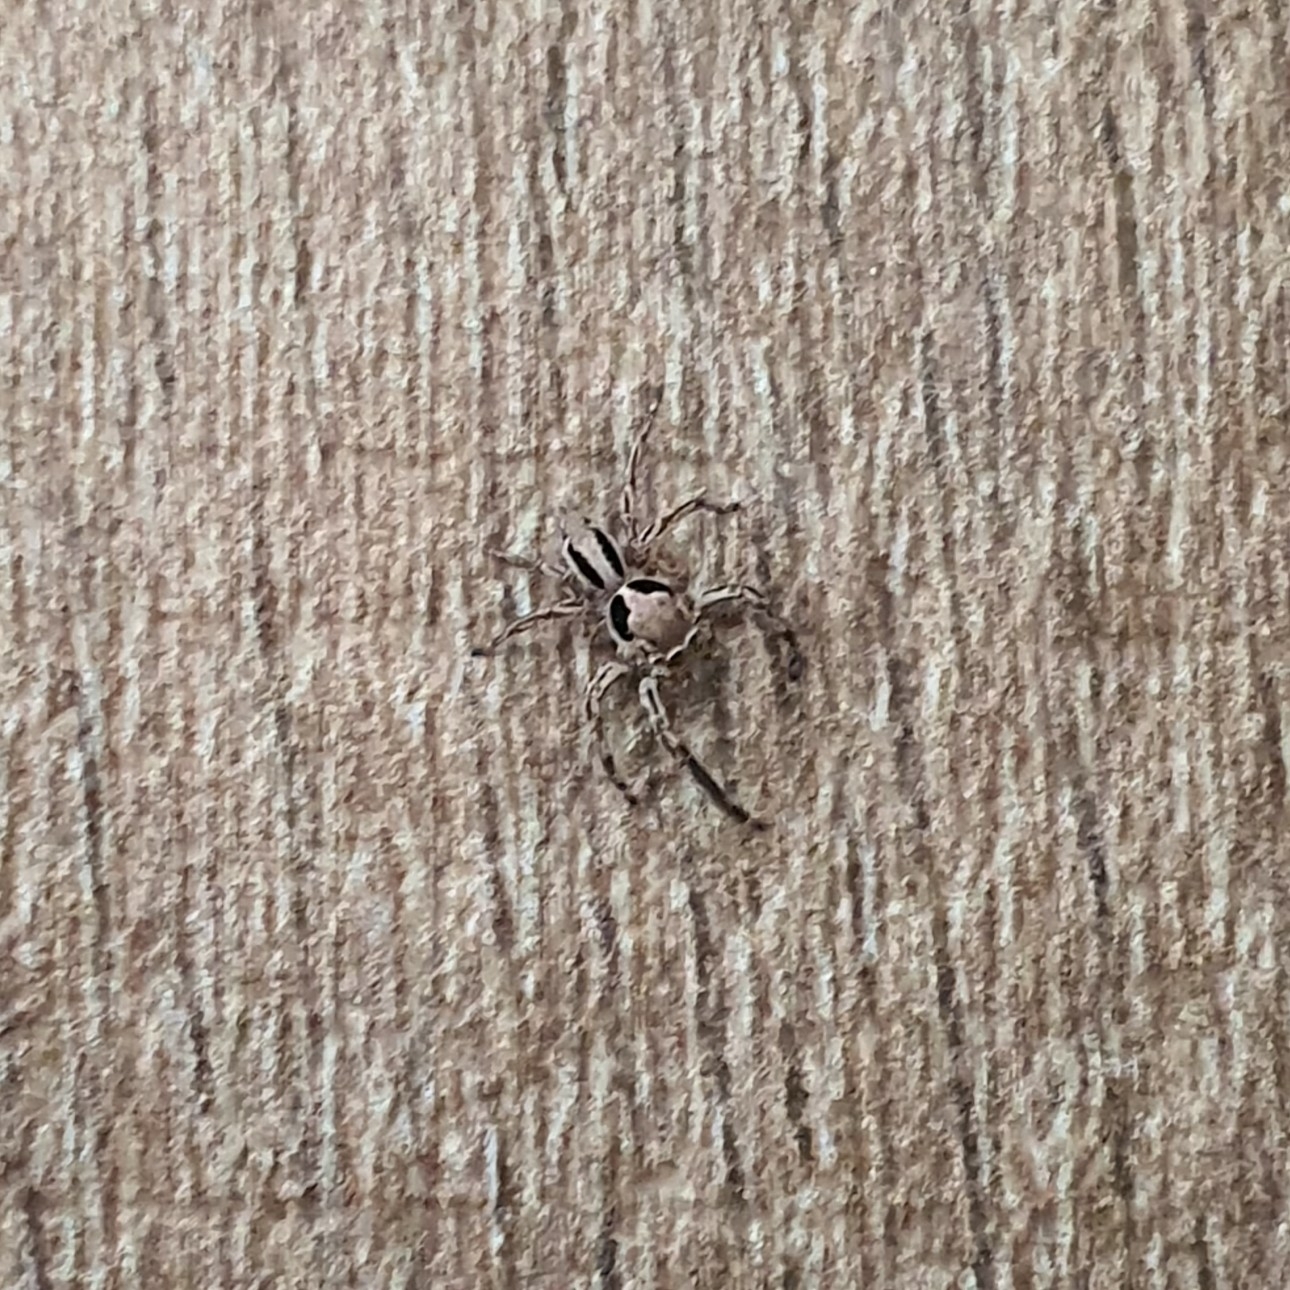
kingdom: Animalia
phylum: Arthropoda
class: Arachnida
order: Araneae
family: Salticidae
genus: Plexippus
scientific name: Plexippus petersi
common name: Jumping spider
